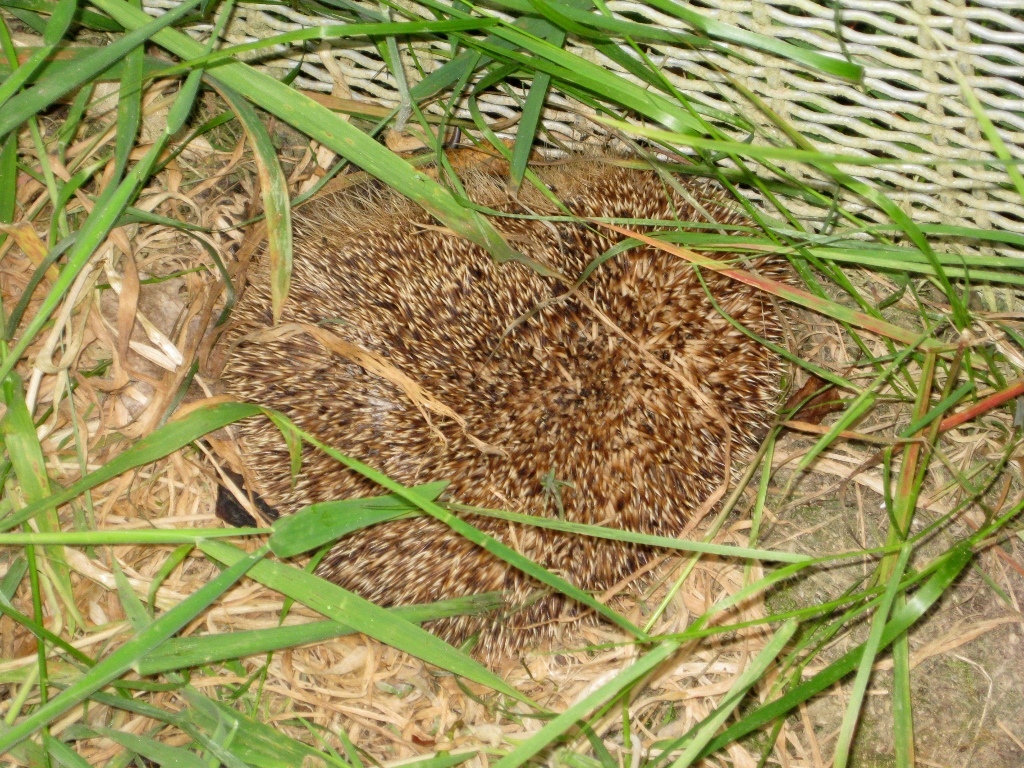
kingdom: Animalia
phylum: Chordata
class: Mammalia
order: Erinaceomorpha
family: Erinaceidae
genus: Erinaceus
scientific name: Erinaceus europaeus
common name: West european hedgehog
